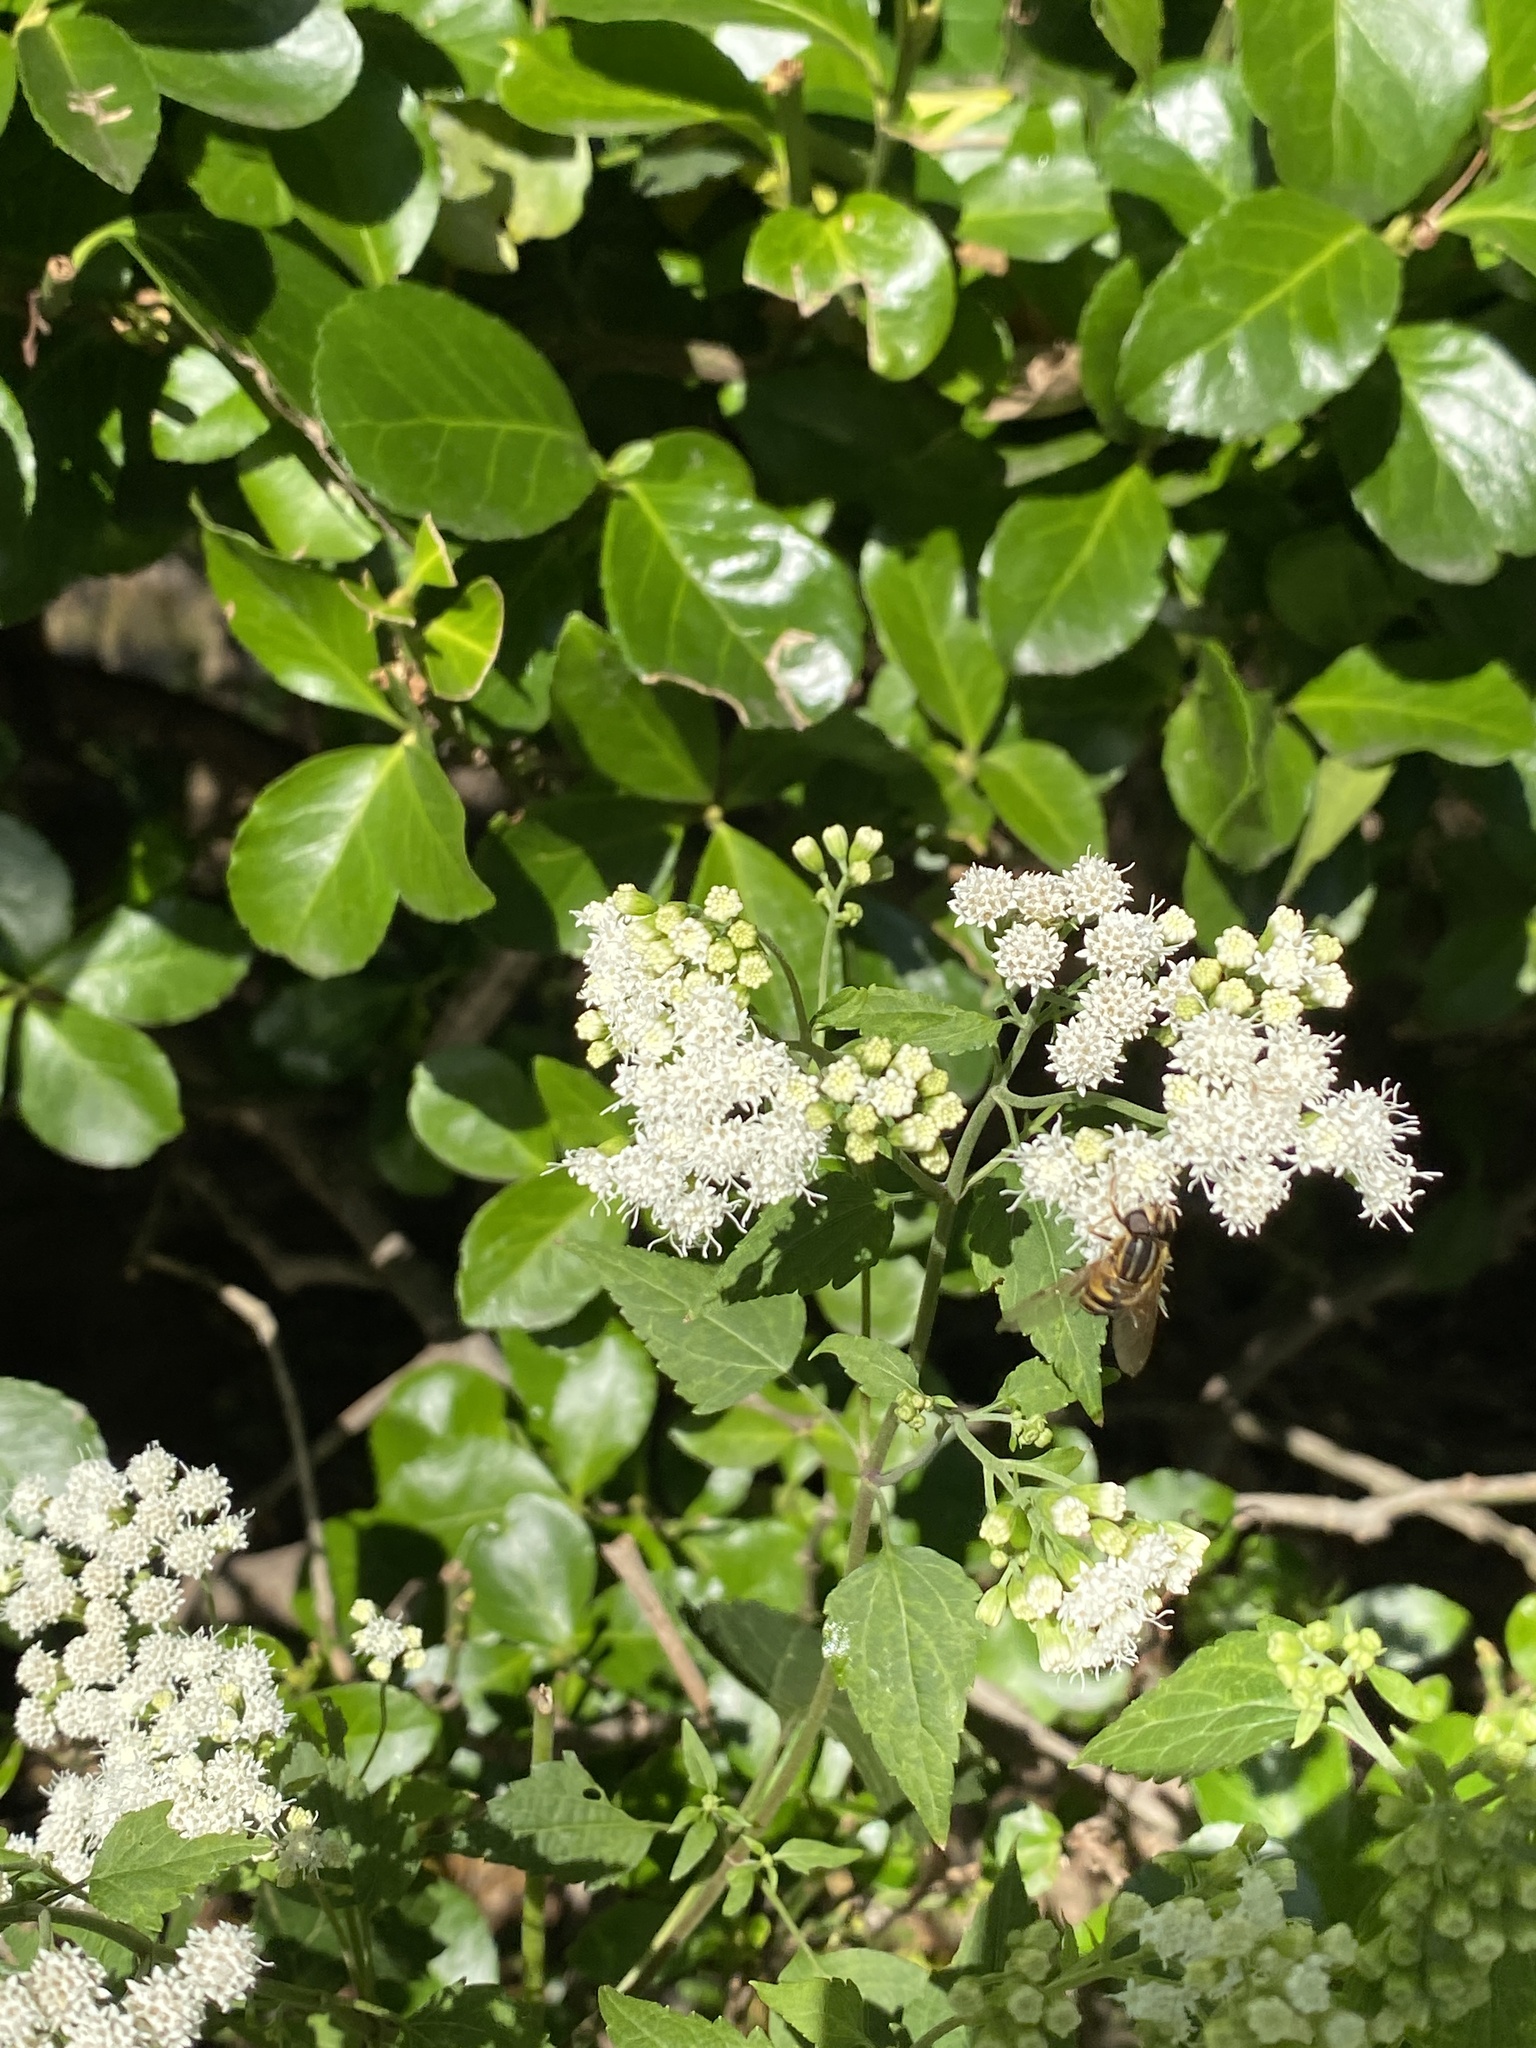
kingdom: Plantae
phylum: Tracheophyta
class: Magnoliopsida
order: Asterales
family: Asteraceae
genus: Ageratina
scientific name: Ageratina altissima
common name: White snakeroot
